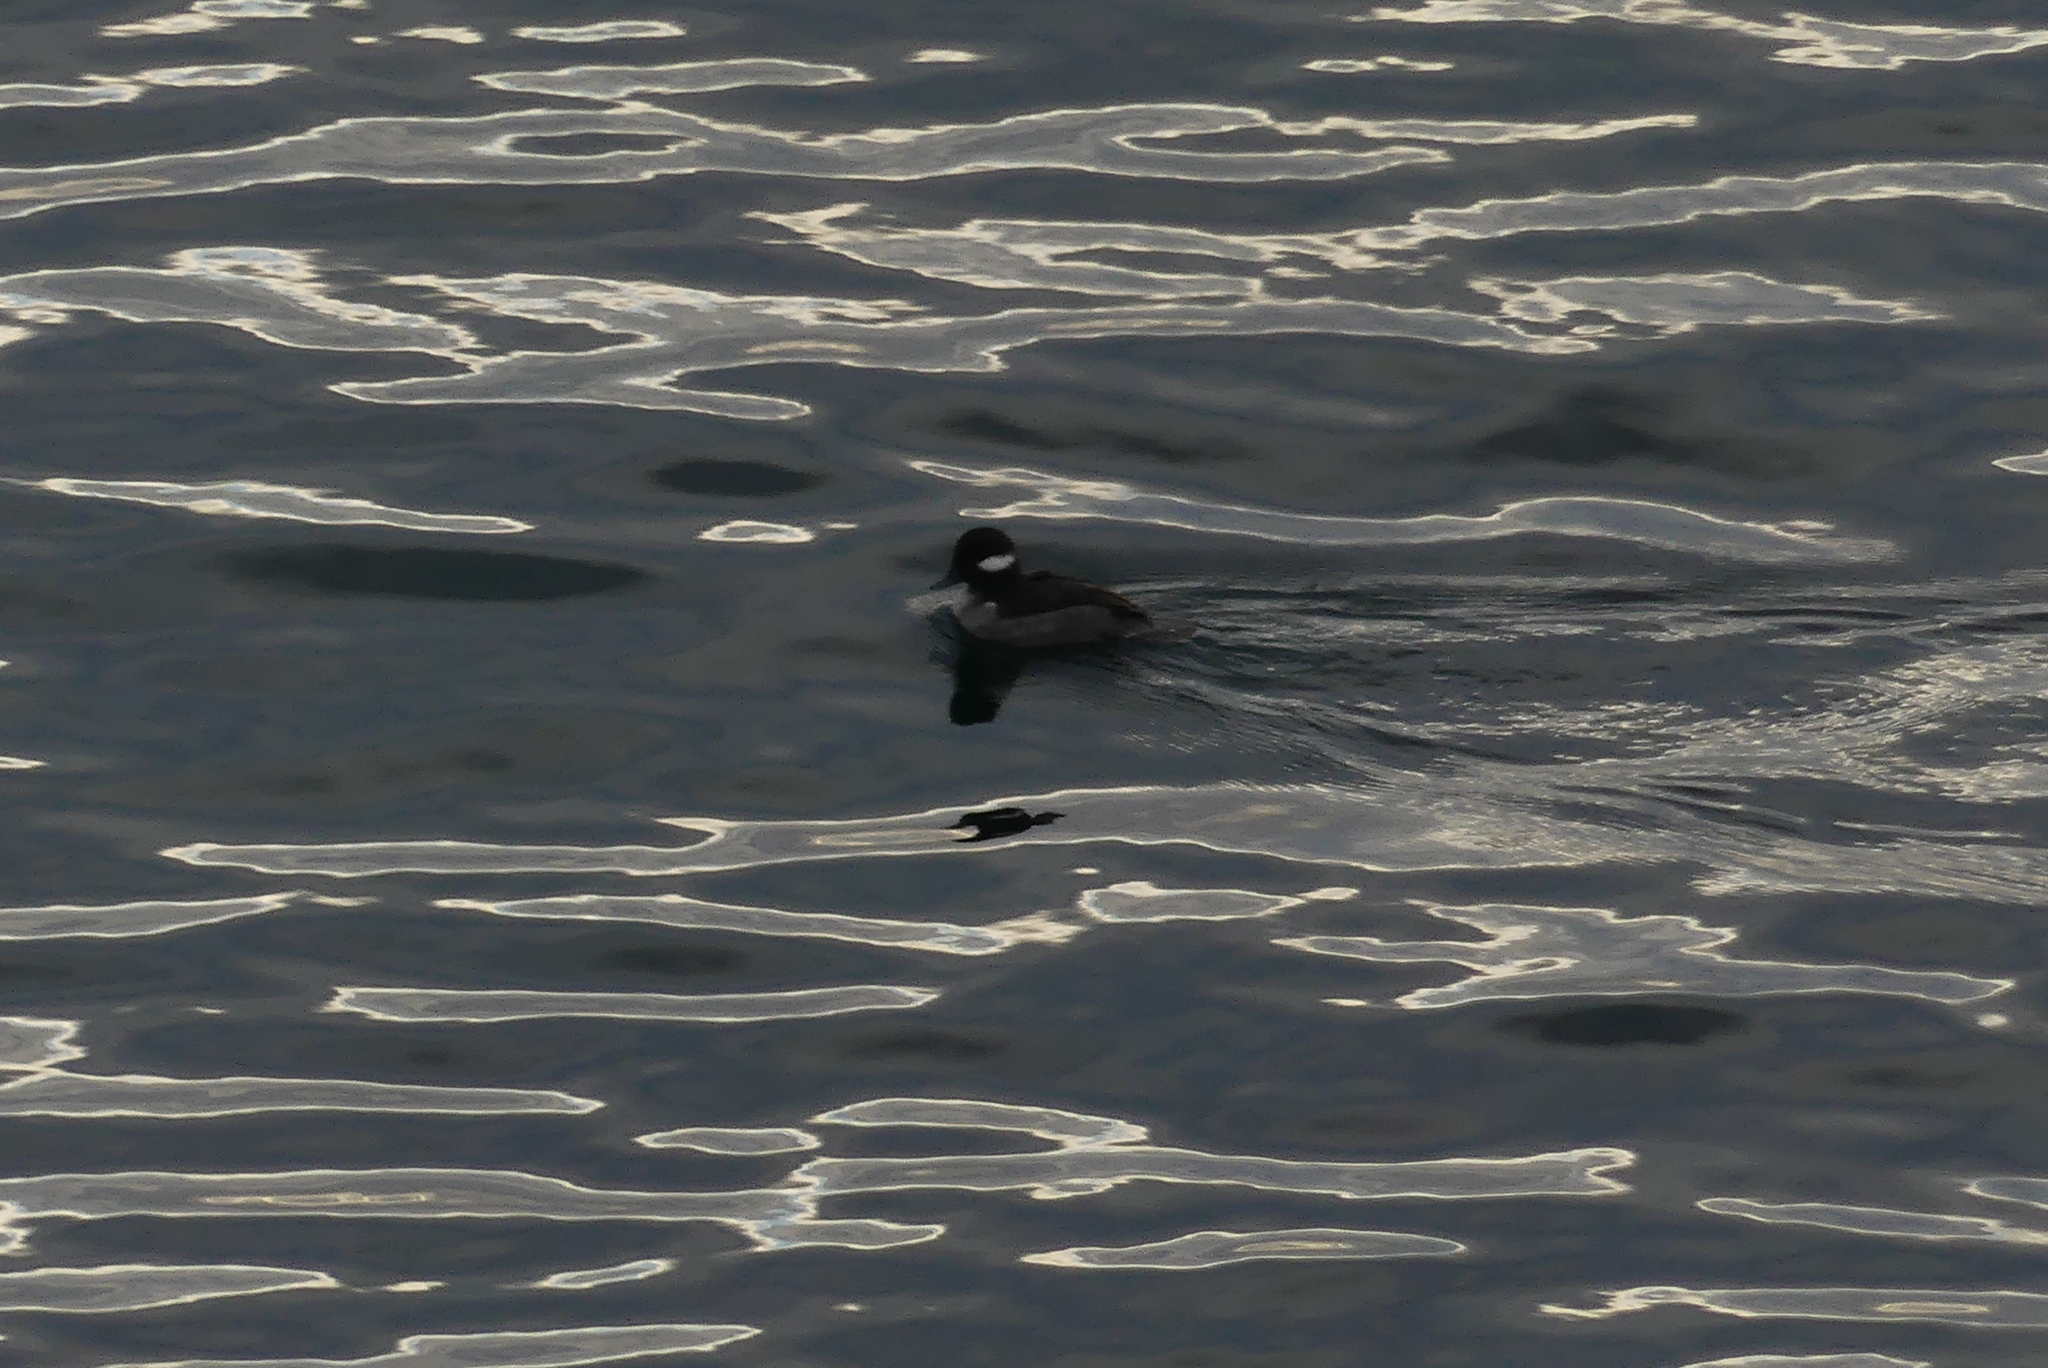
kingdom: Animalia
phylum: Chordata
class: Aves
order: Anseriformes
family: Anatidae
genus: Bucephala
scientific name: Bucephala albeola
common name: Bufflehead
